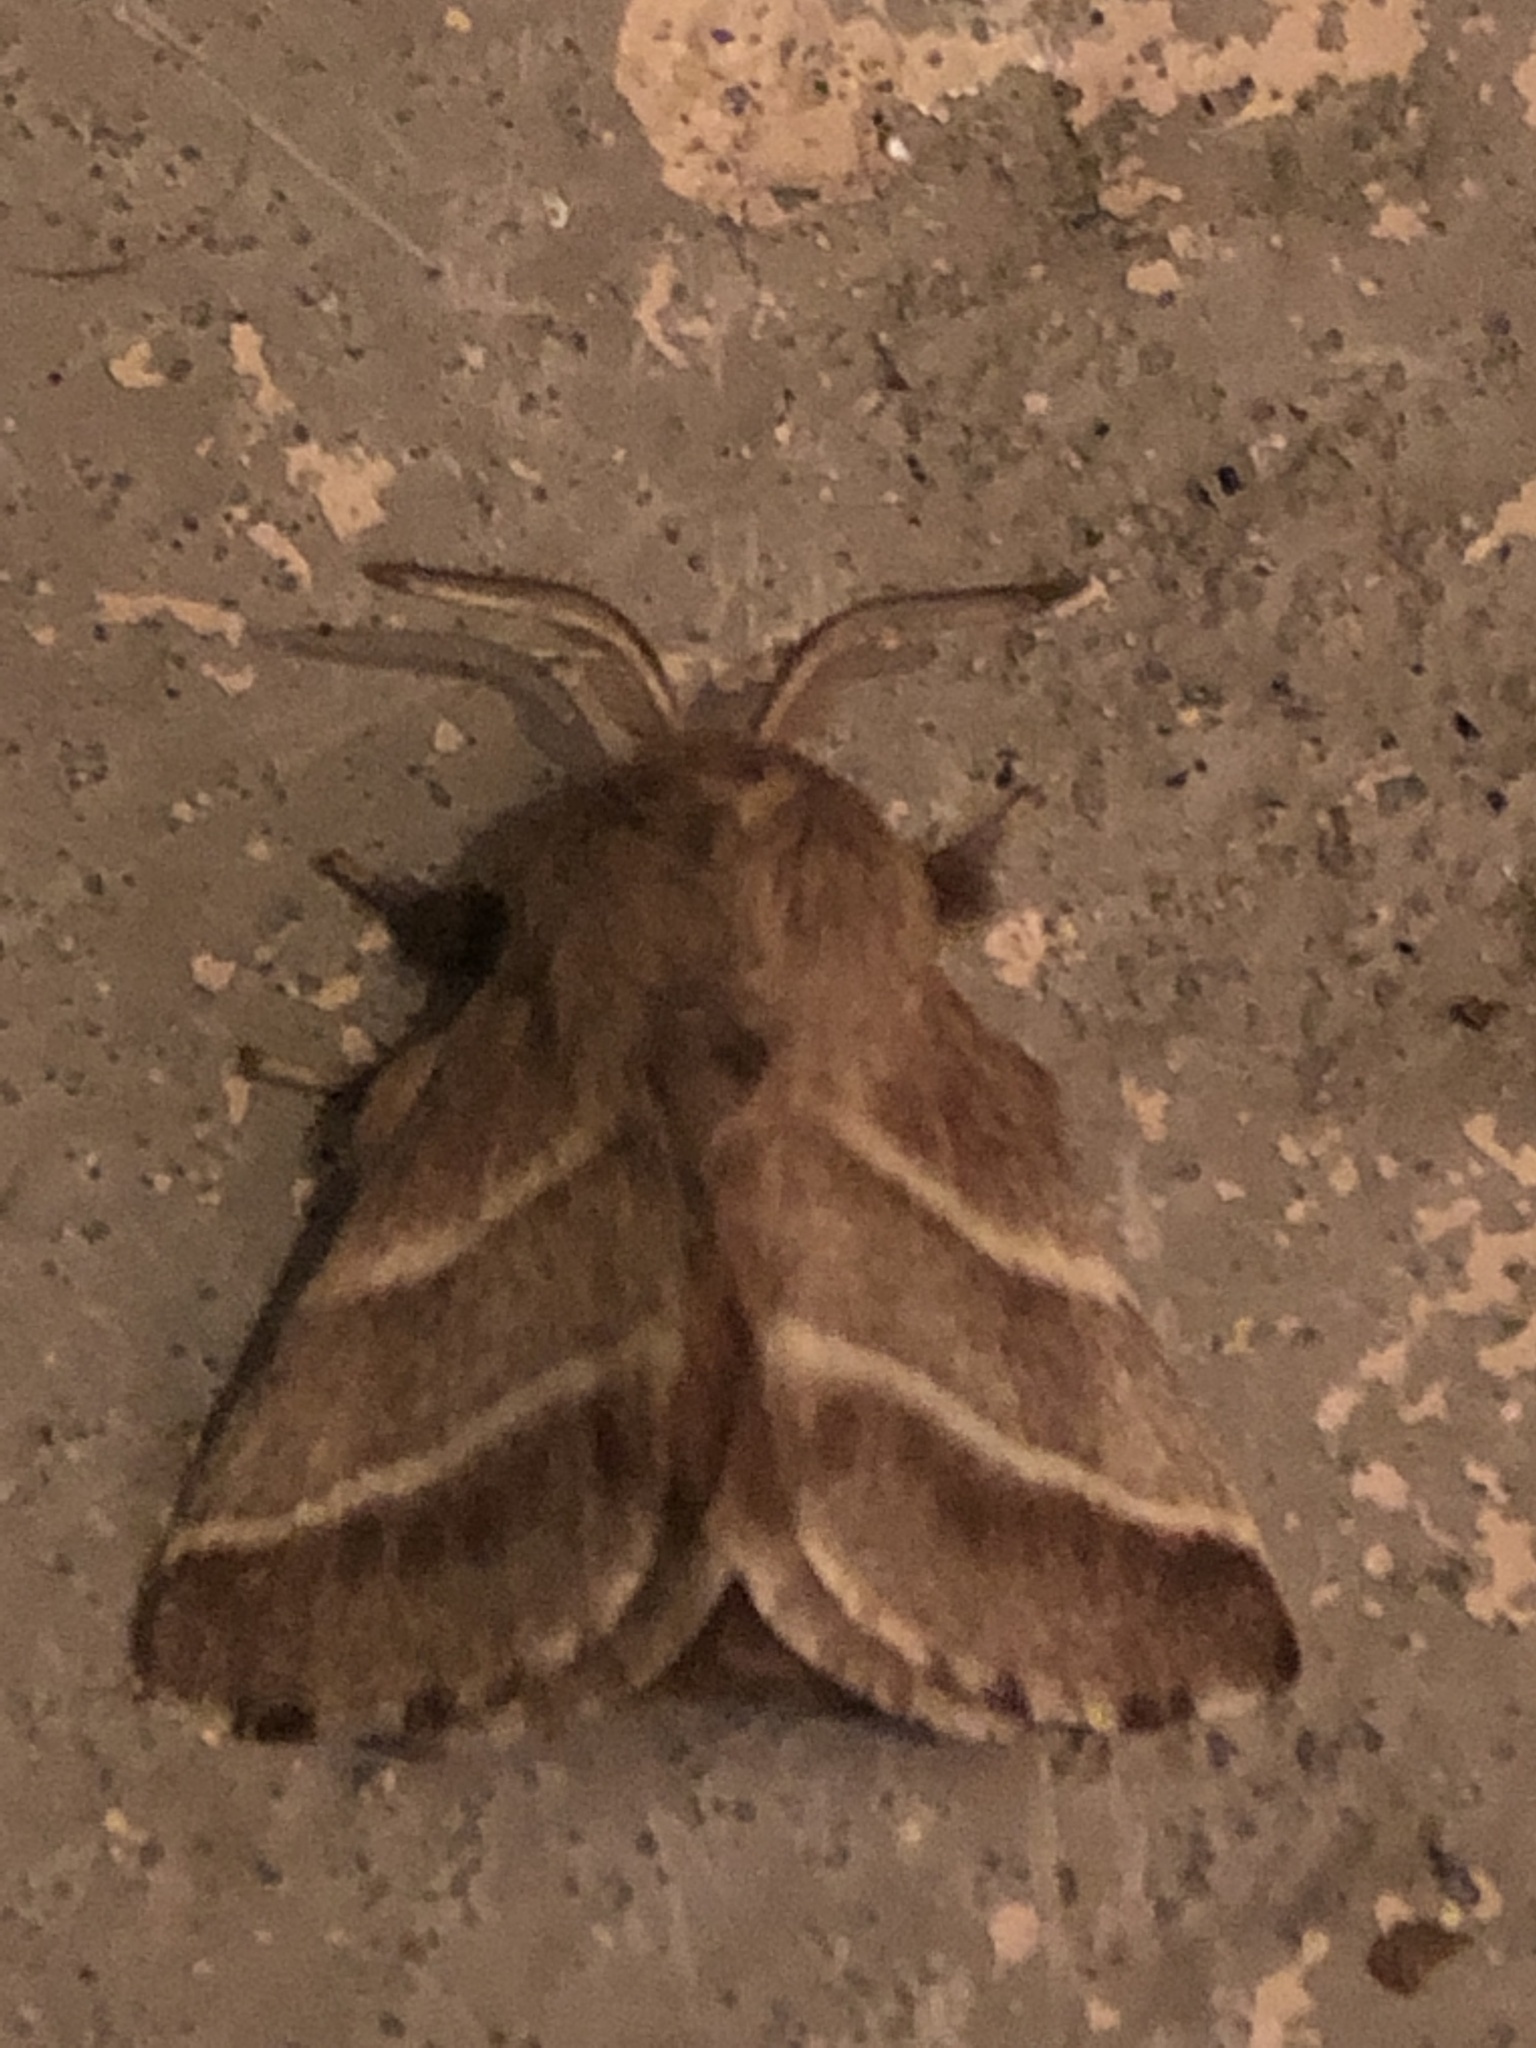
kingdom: Animalia
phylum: Arthropoda
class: Insecta
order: Lepidoptera
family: Lasiocampidae
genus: Malacosoma
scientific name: Malacosoma americana
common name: Eastern tent caterpillar moth
